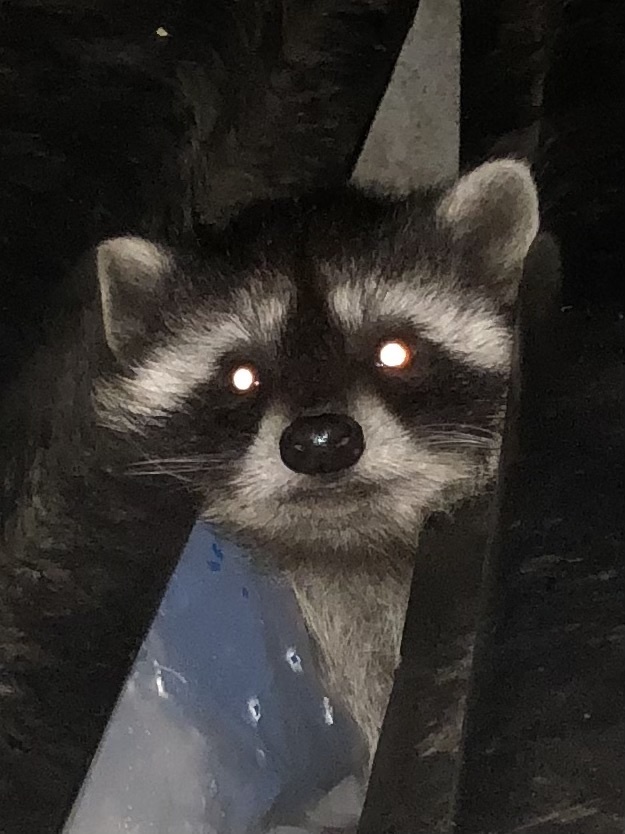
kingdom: Animalia
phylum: Chordata
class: Mammalia
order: Carnivora
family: Procyonidae
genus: Procyon
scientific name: Procyon lotor
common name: Raccoon
